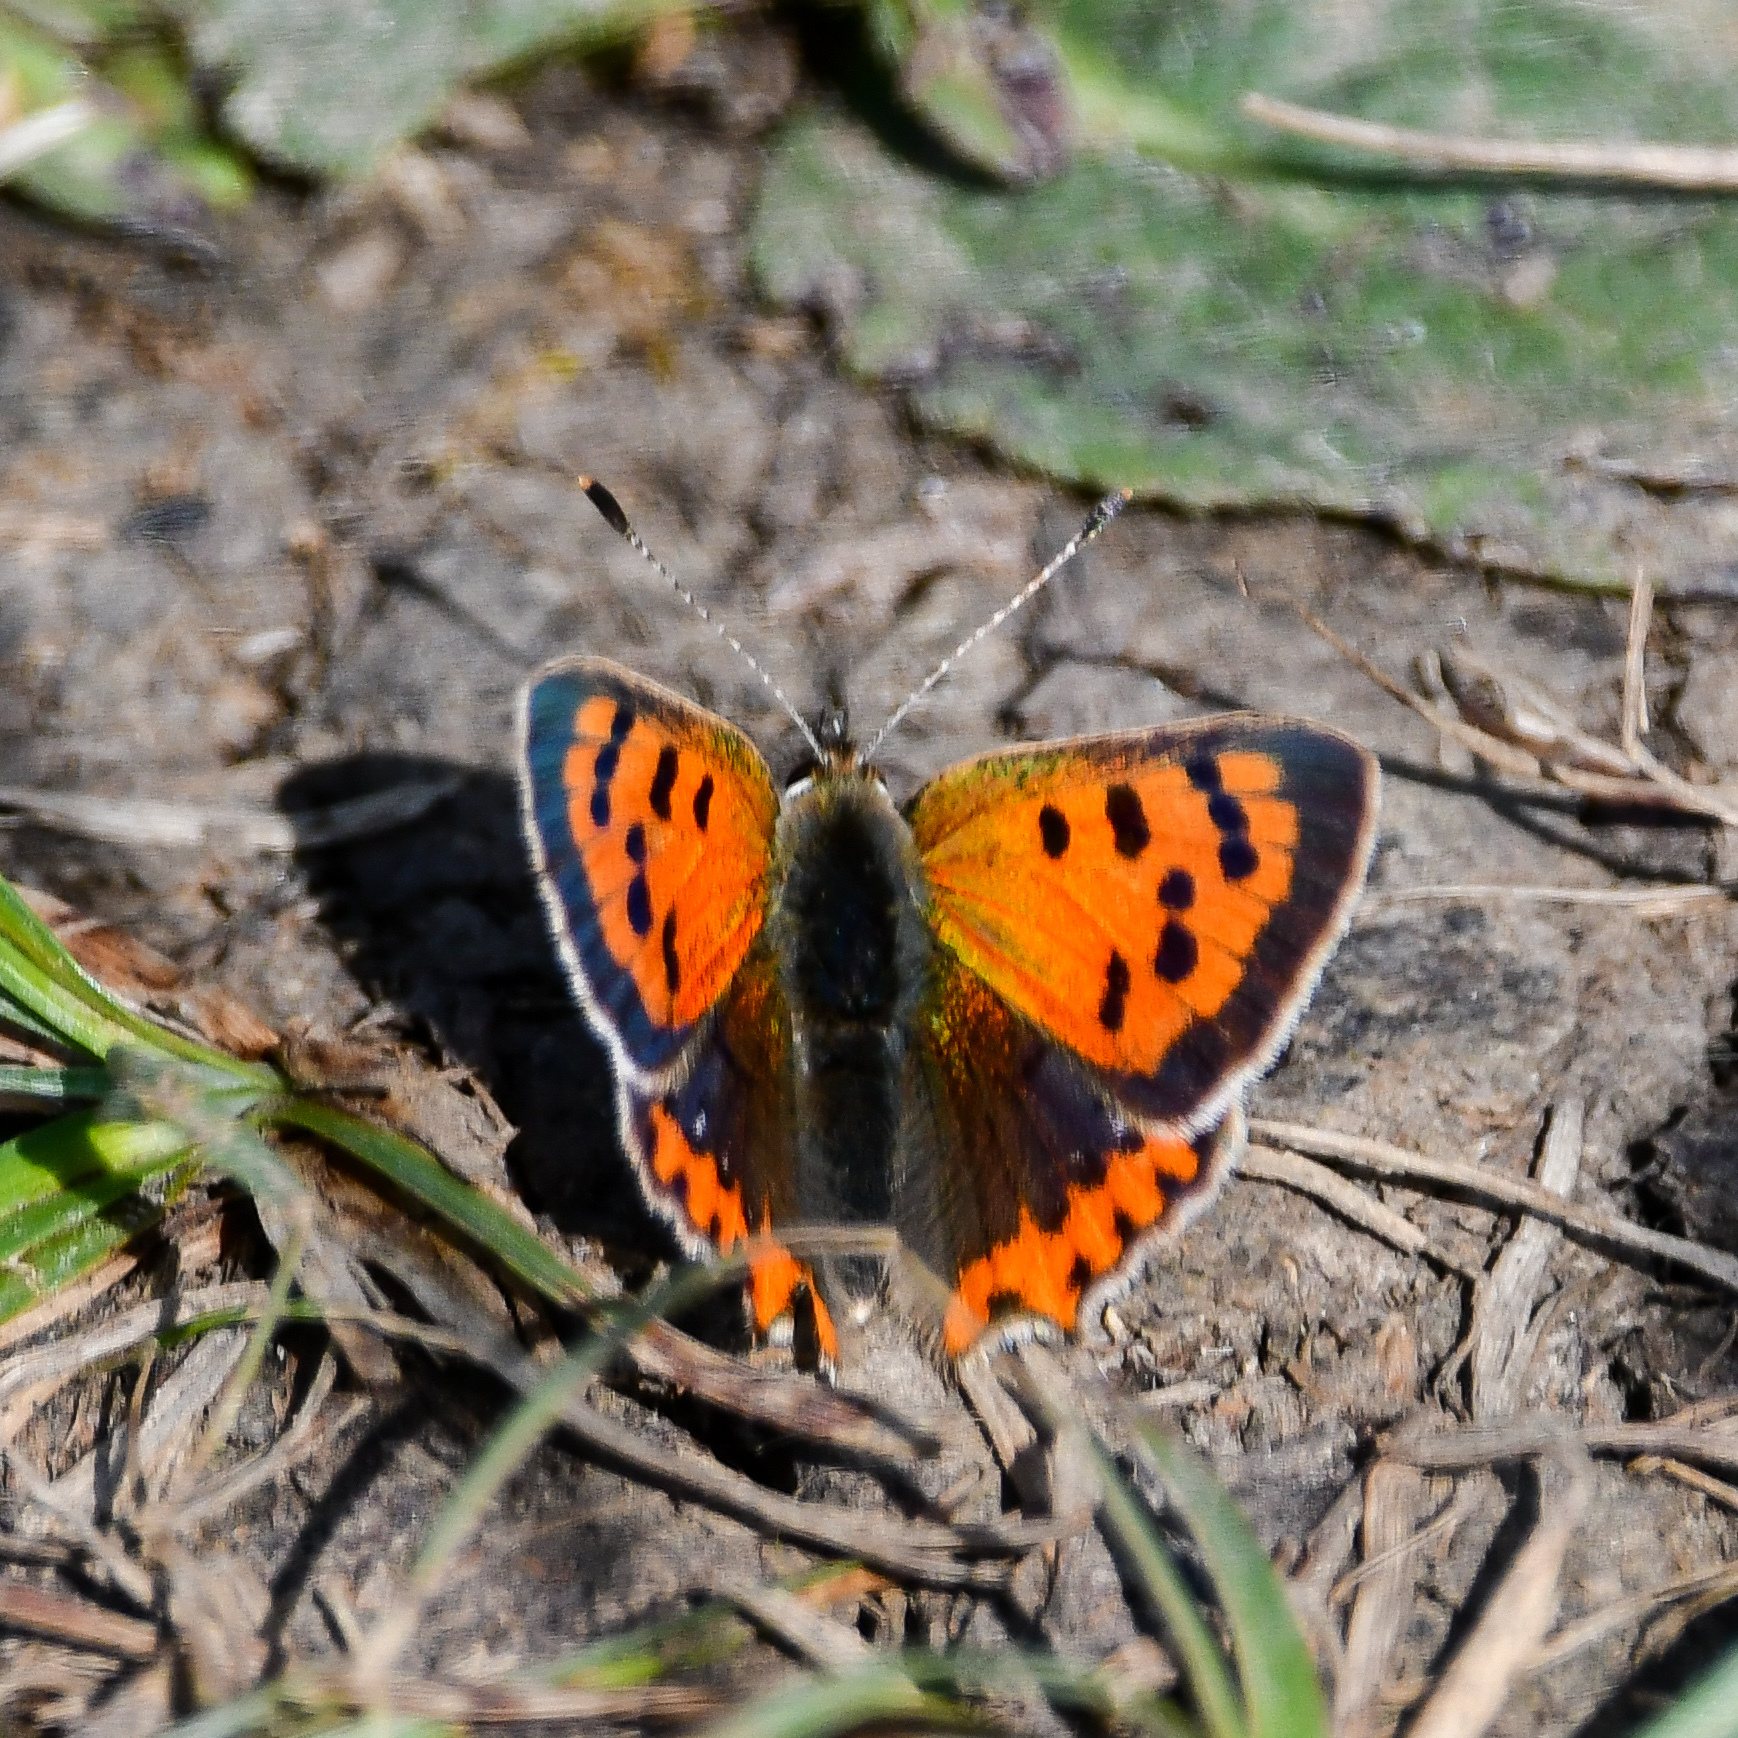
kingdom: Animalia
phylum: Arthropoda
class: Insecta
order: Lepidoptera
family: Lycaenidae
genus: Lycaena
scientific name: Lycaena phlaeas
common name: Small copper
